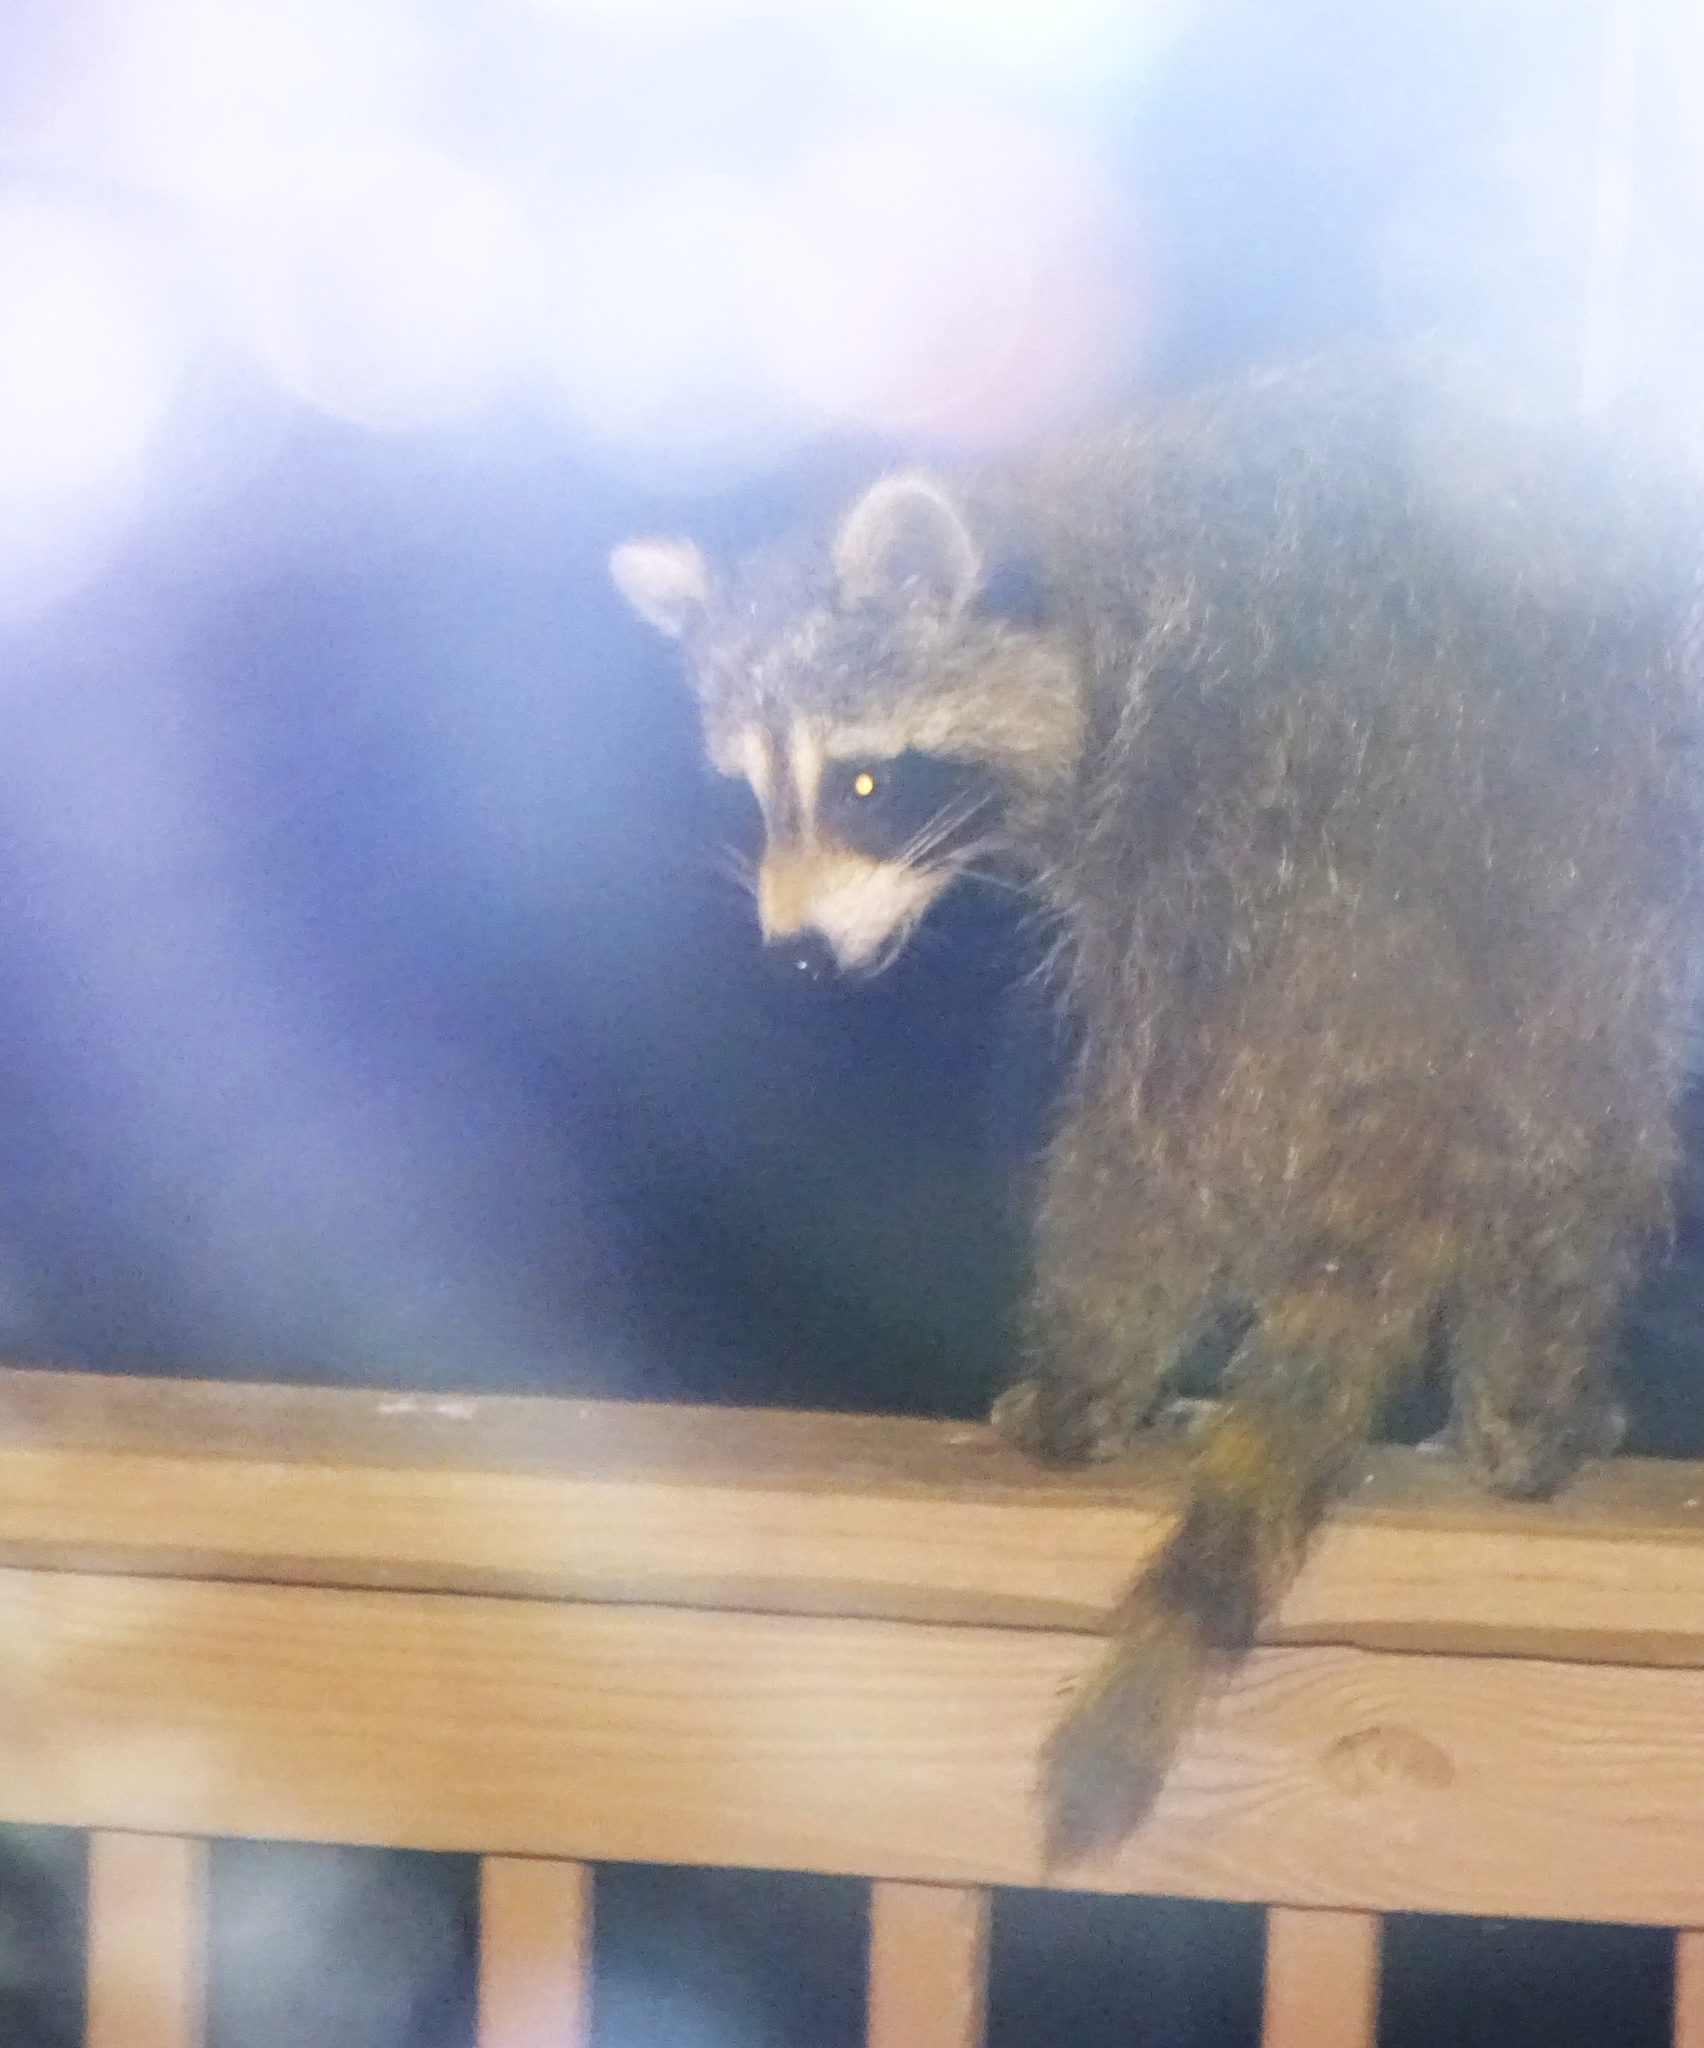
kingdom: Animalia
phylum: Chordata
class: Mammalia
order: Carnivora
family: Procyonidae
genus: Procyon
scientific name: Procyon lotor
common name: Raccoon
